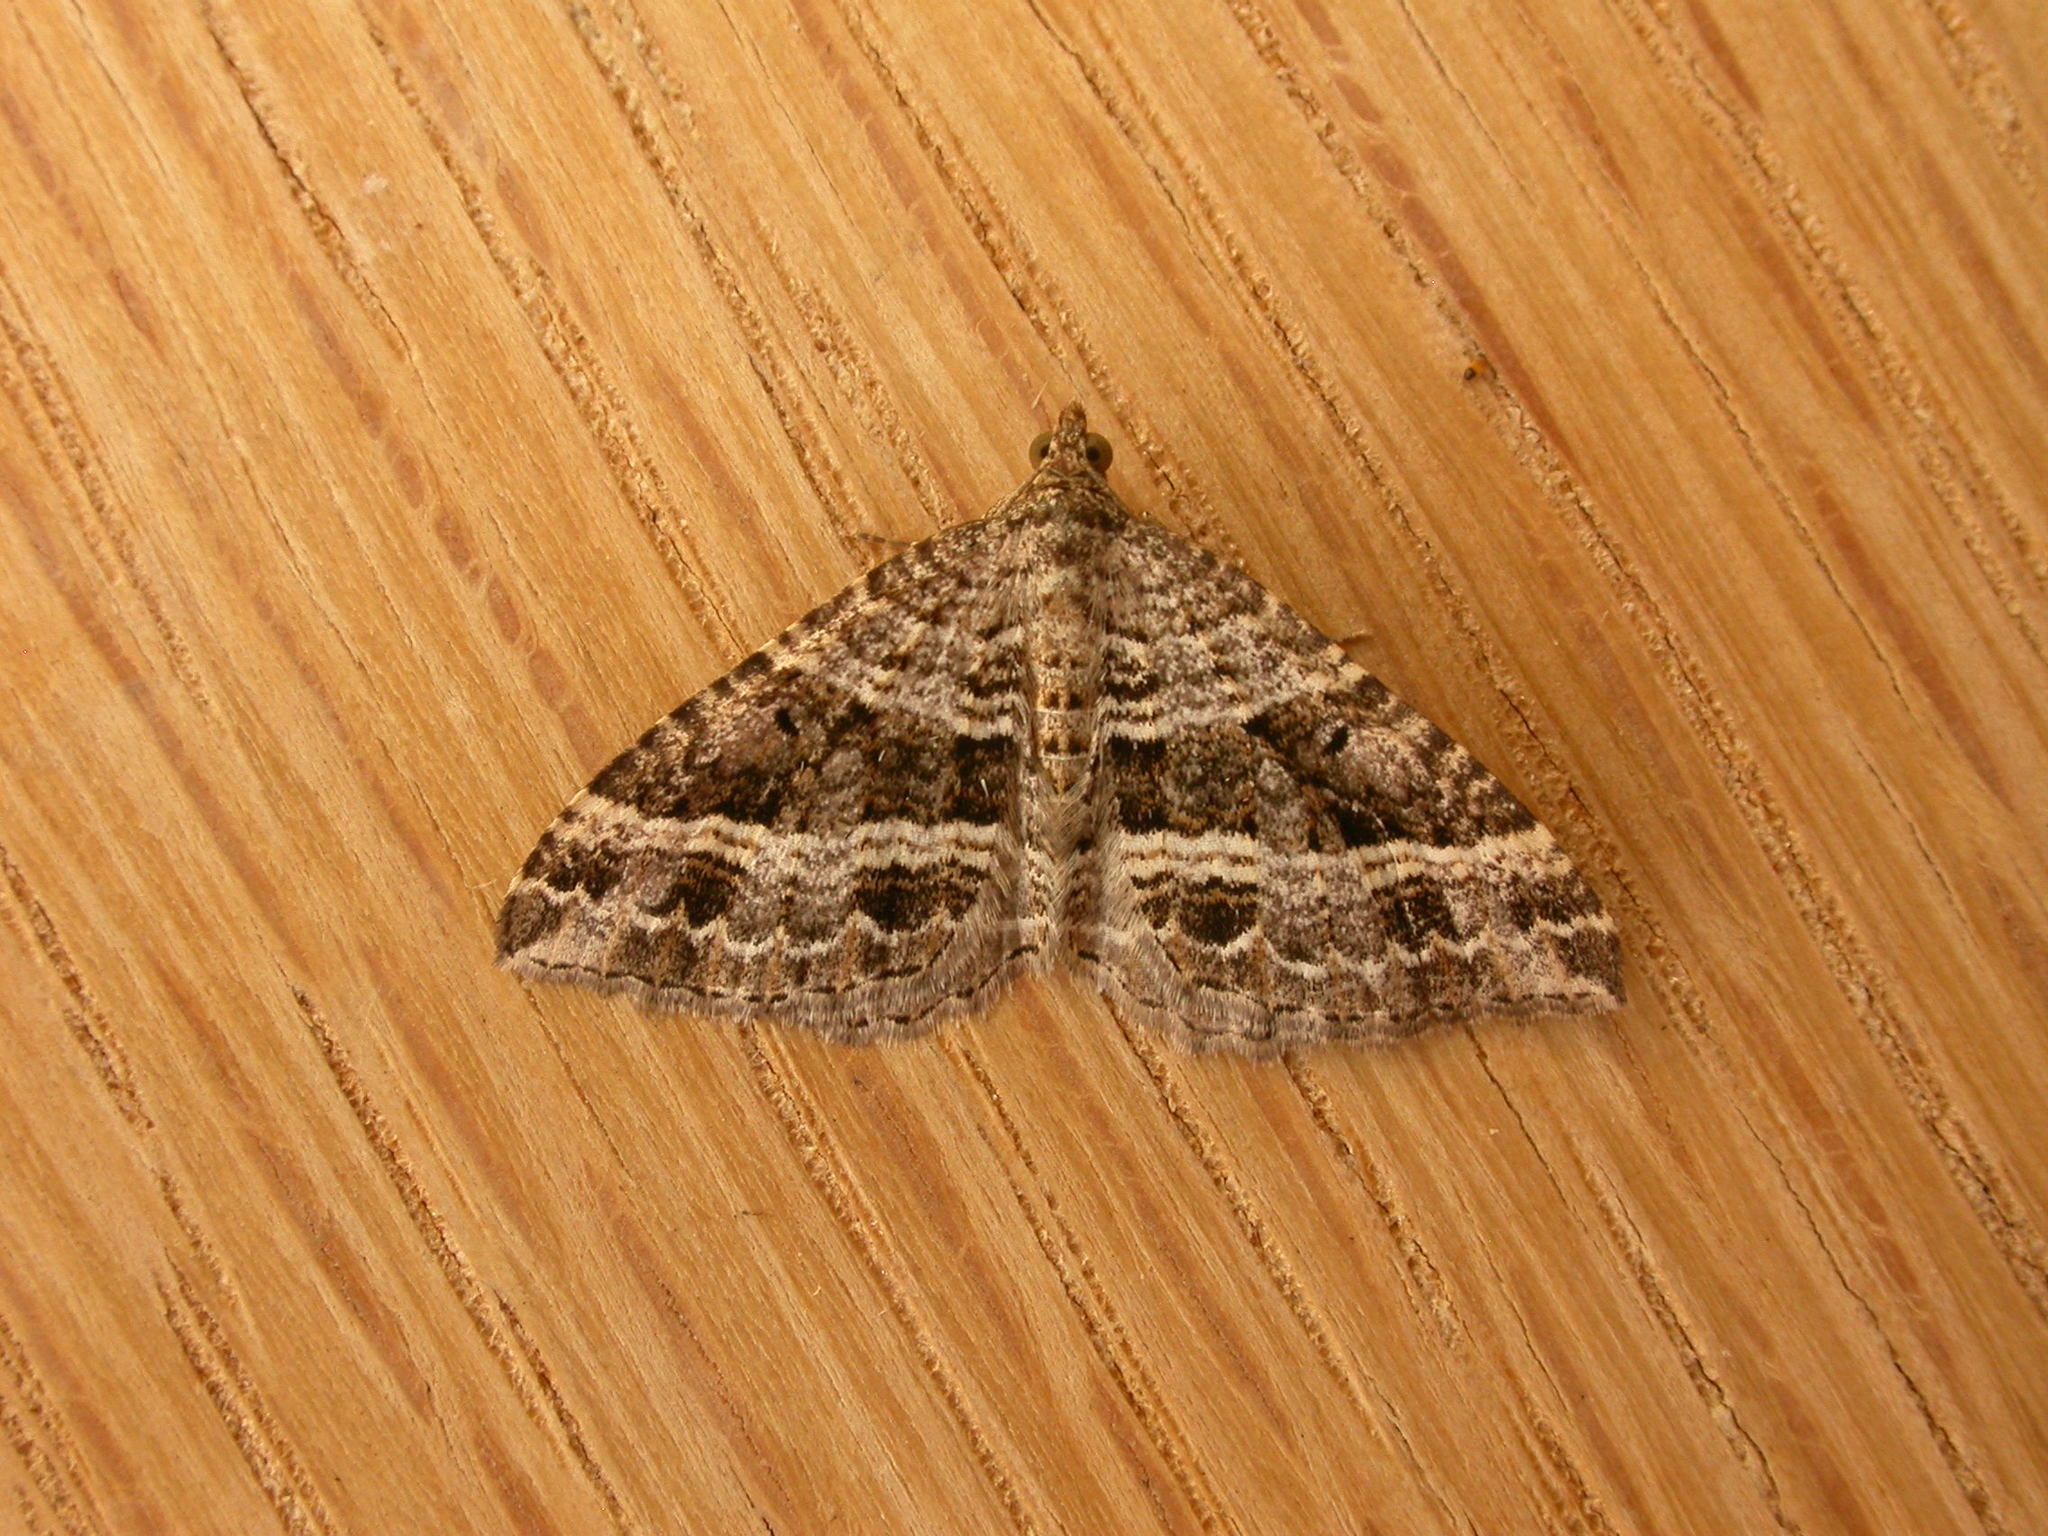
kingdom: Animalia
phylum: Arthropoda
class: Insecta
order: Lepidoptera
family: Geometridae
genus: Chrysolarentia
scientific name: Chrysolarentia subrectaria
